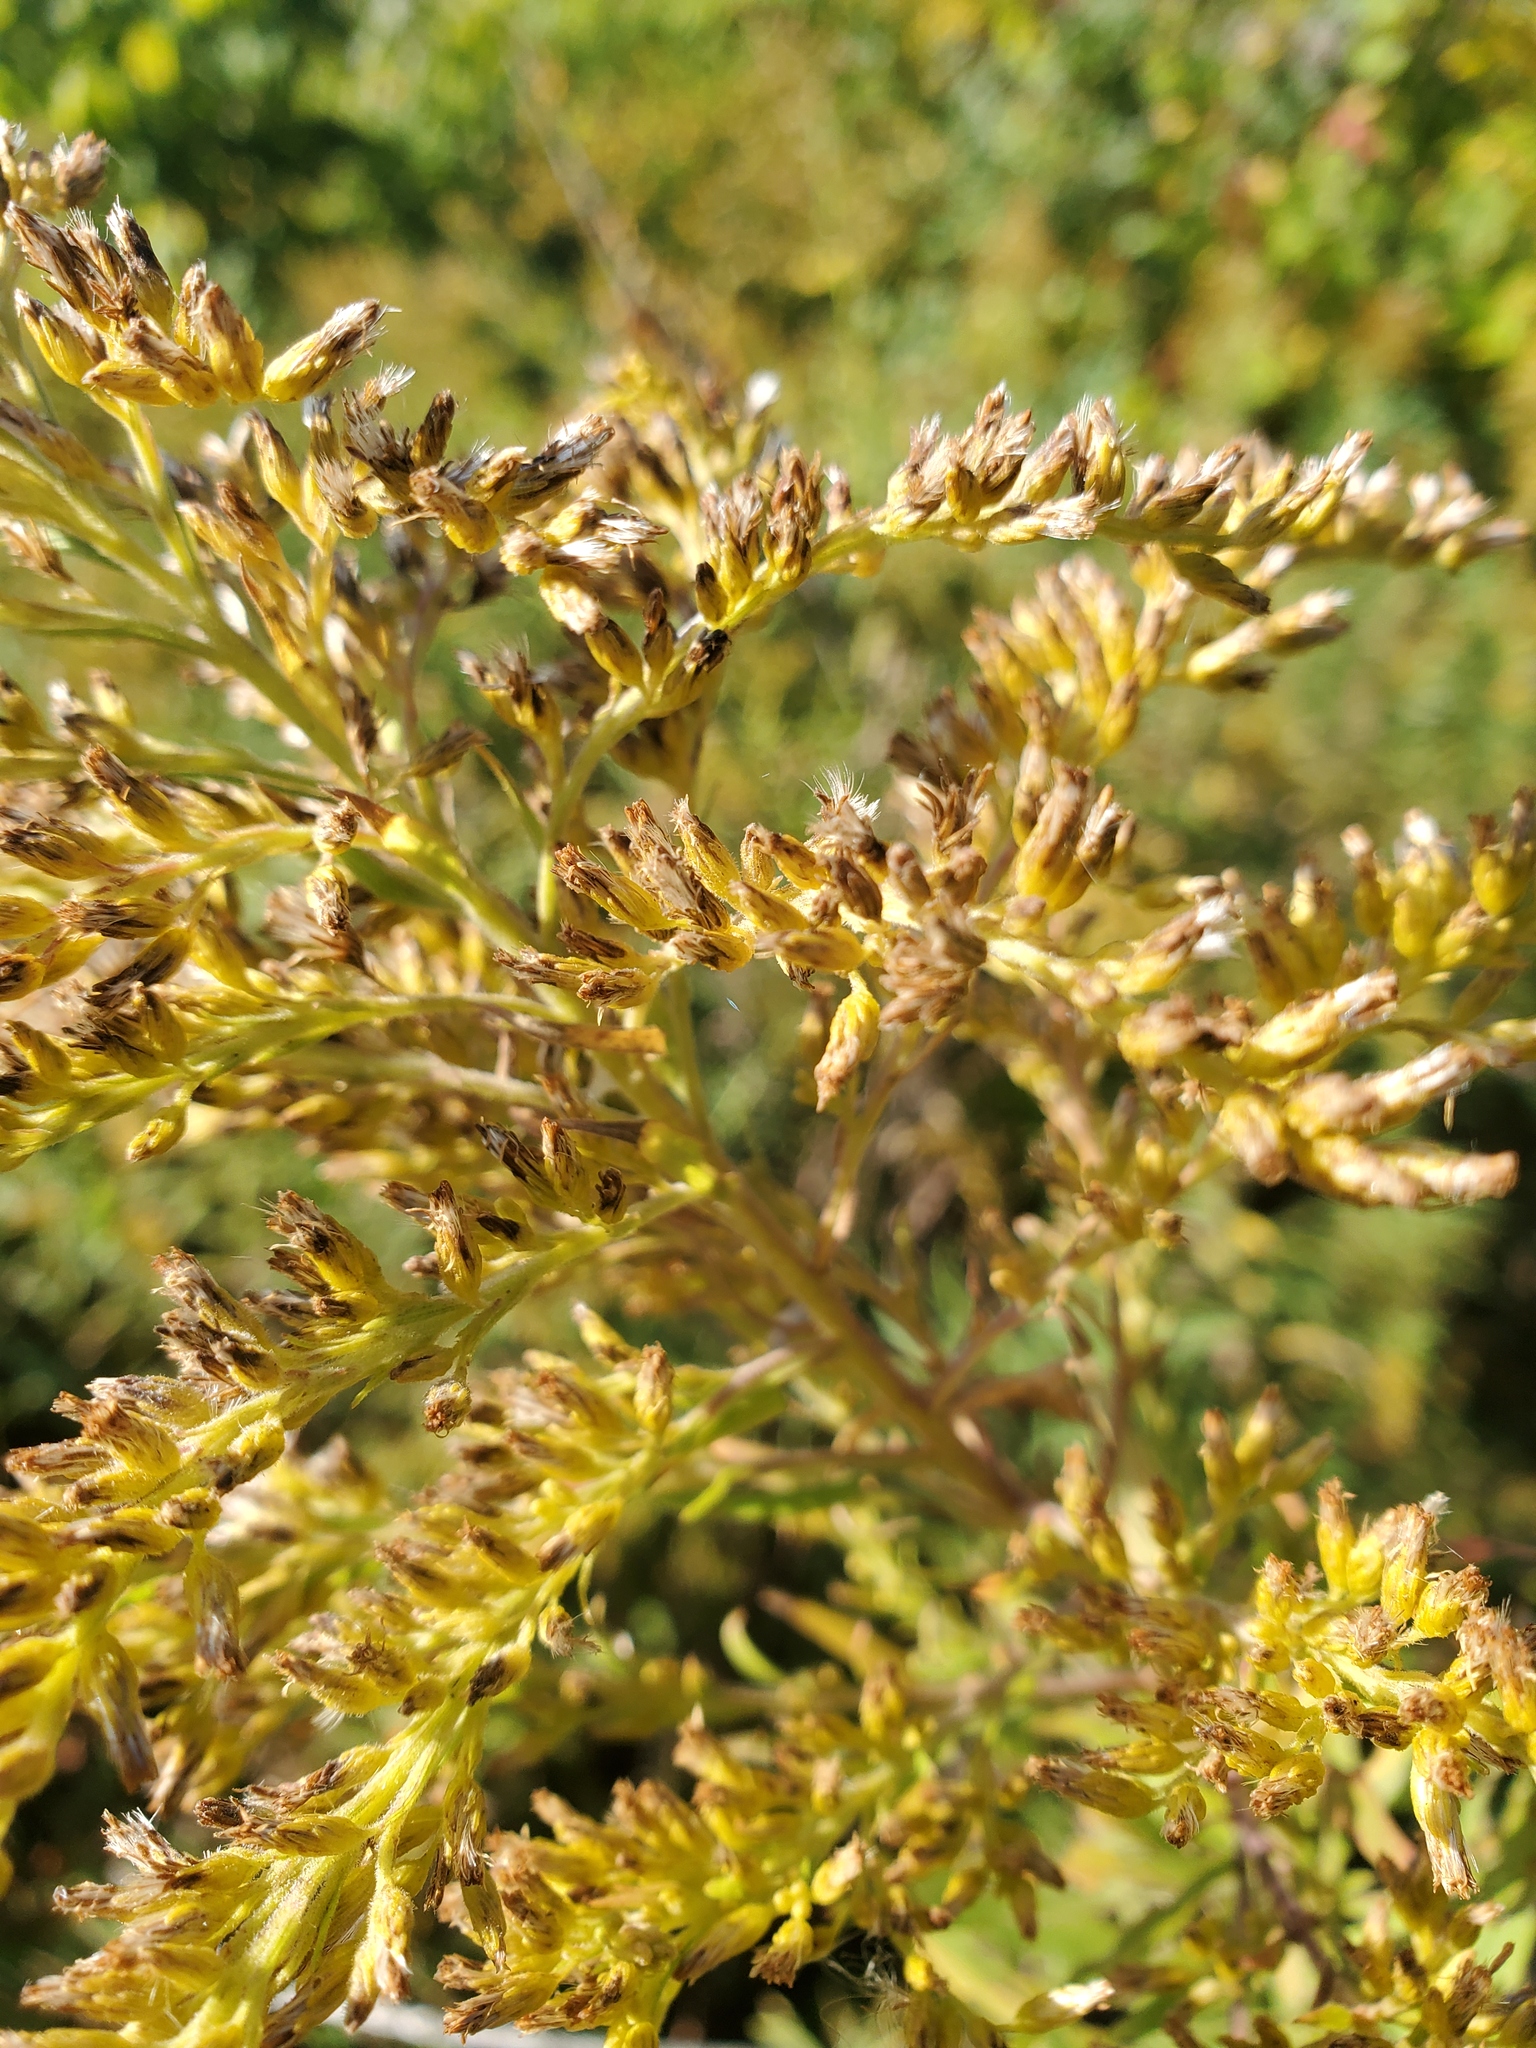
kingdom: Plantae
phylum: Tracheophyta
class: Magnoliopsida
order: Asterales
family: Asteraceae
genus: Solidago
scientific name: Solidago altissima
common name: Late goldenrod
